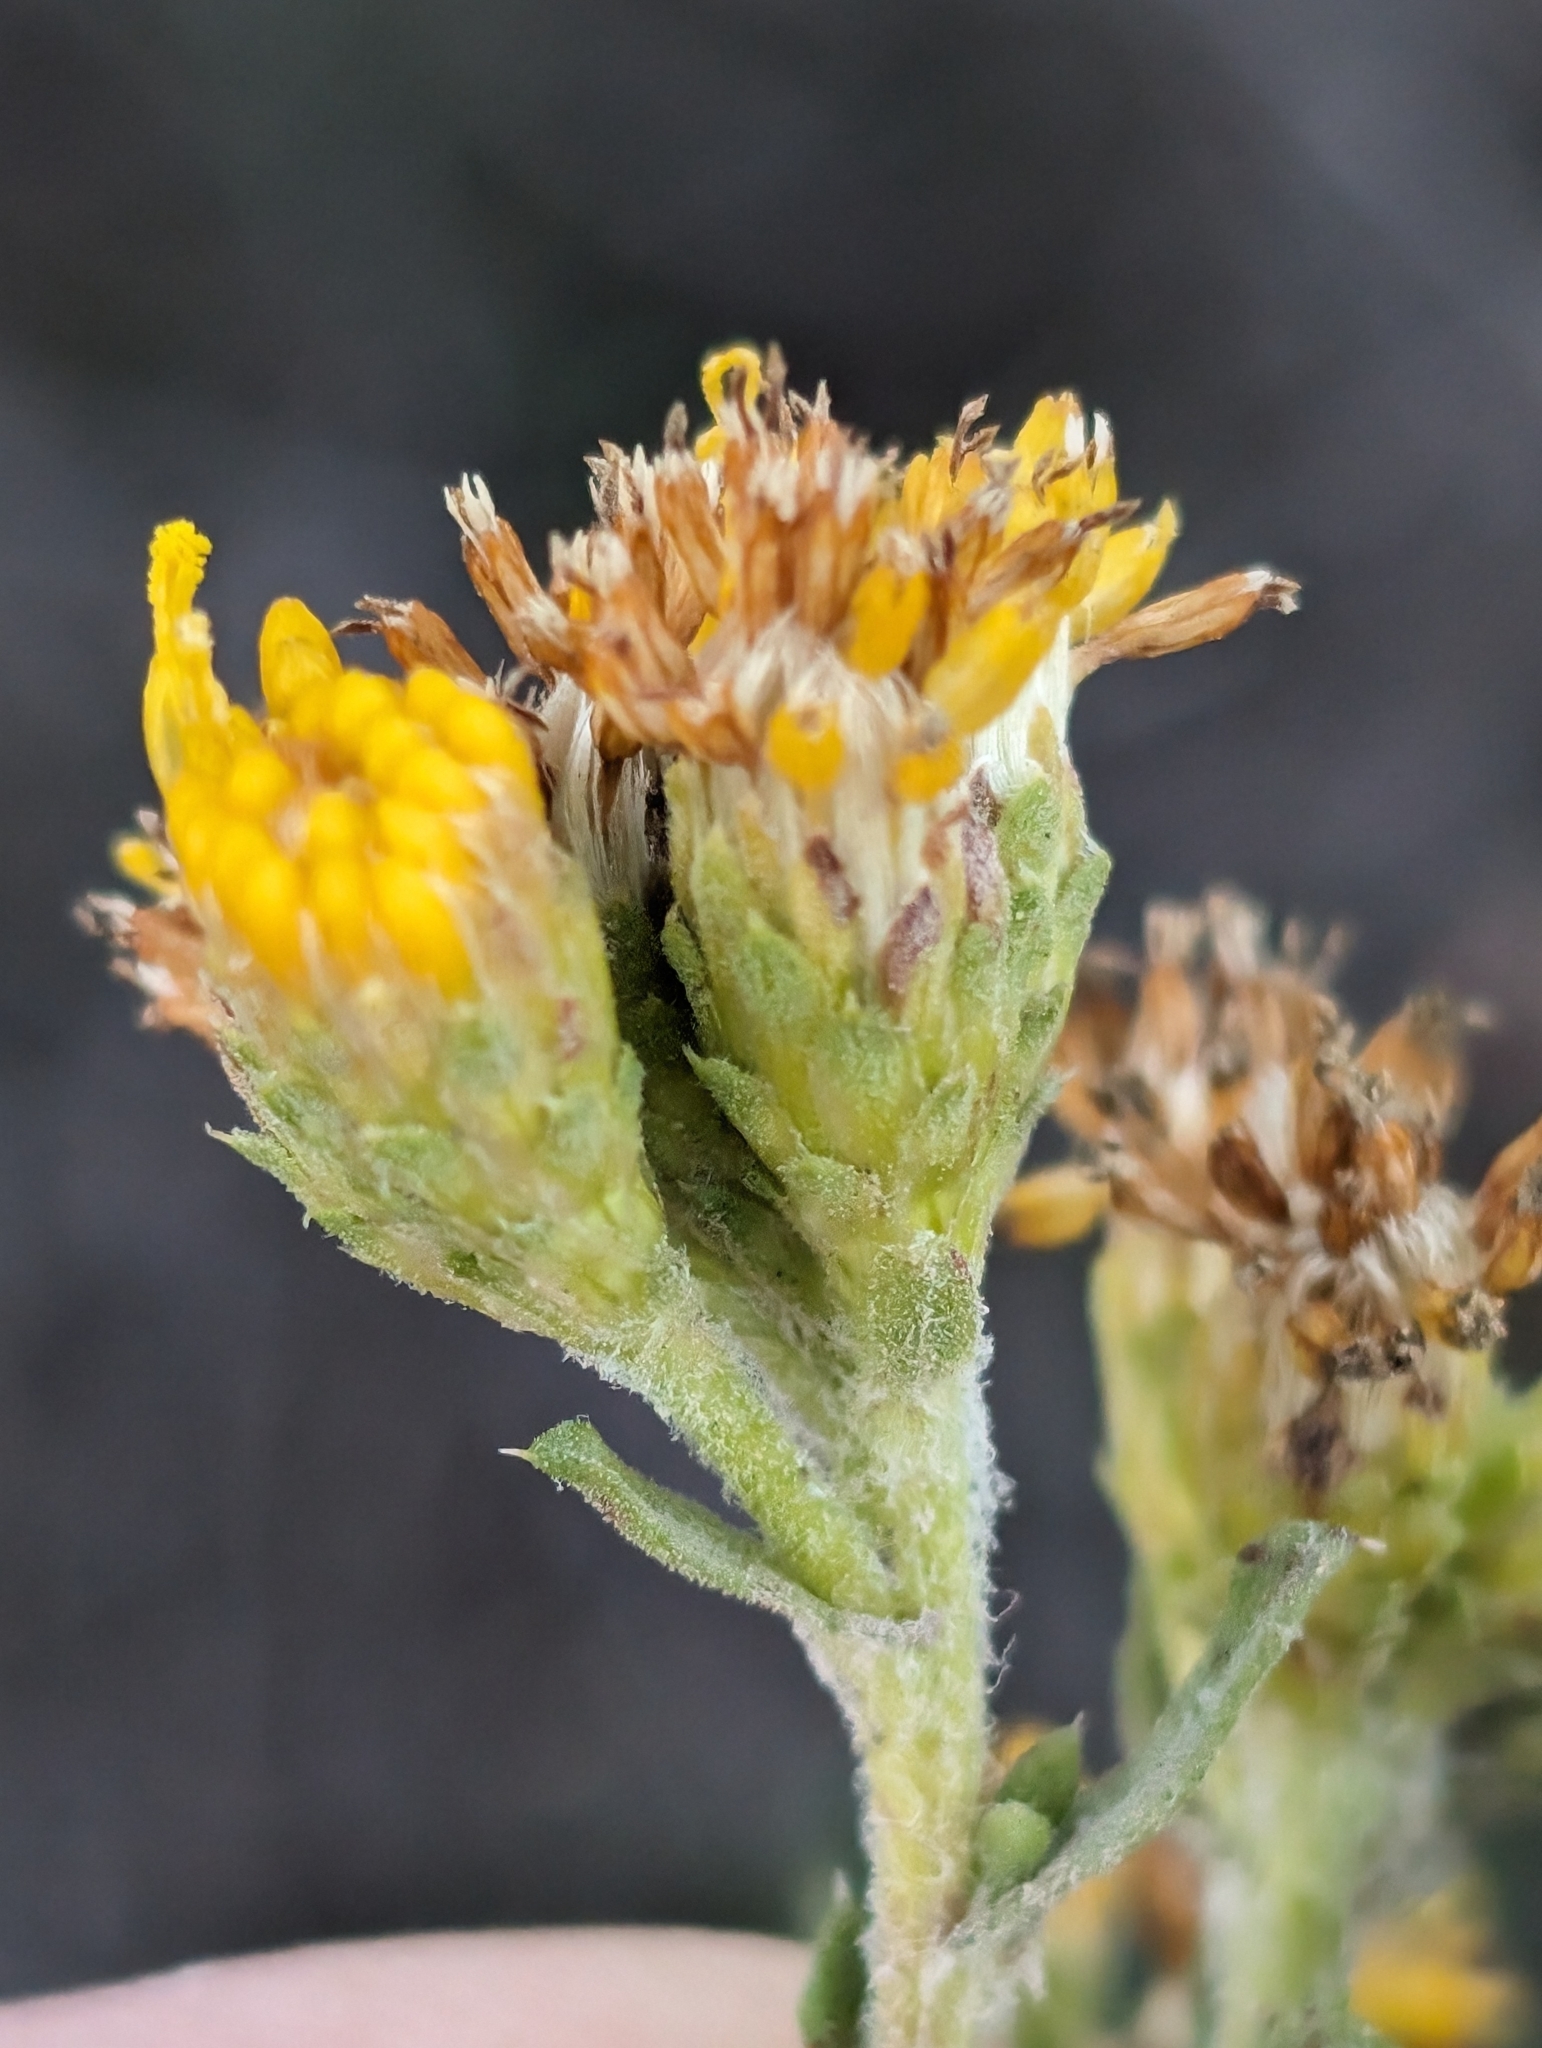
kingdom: Plantae
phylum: Tracheophyta
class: Magnoliopsida
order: Asterales
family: Asteraceae
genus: Isocoma
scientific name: Isocoma menziesii
